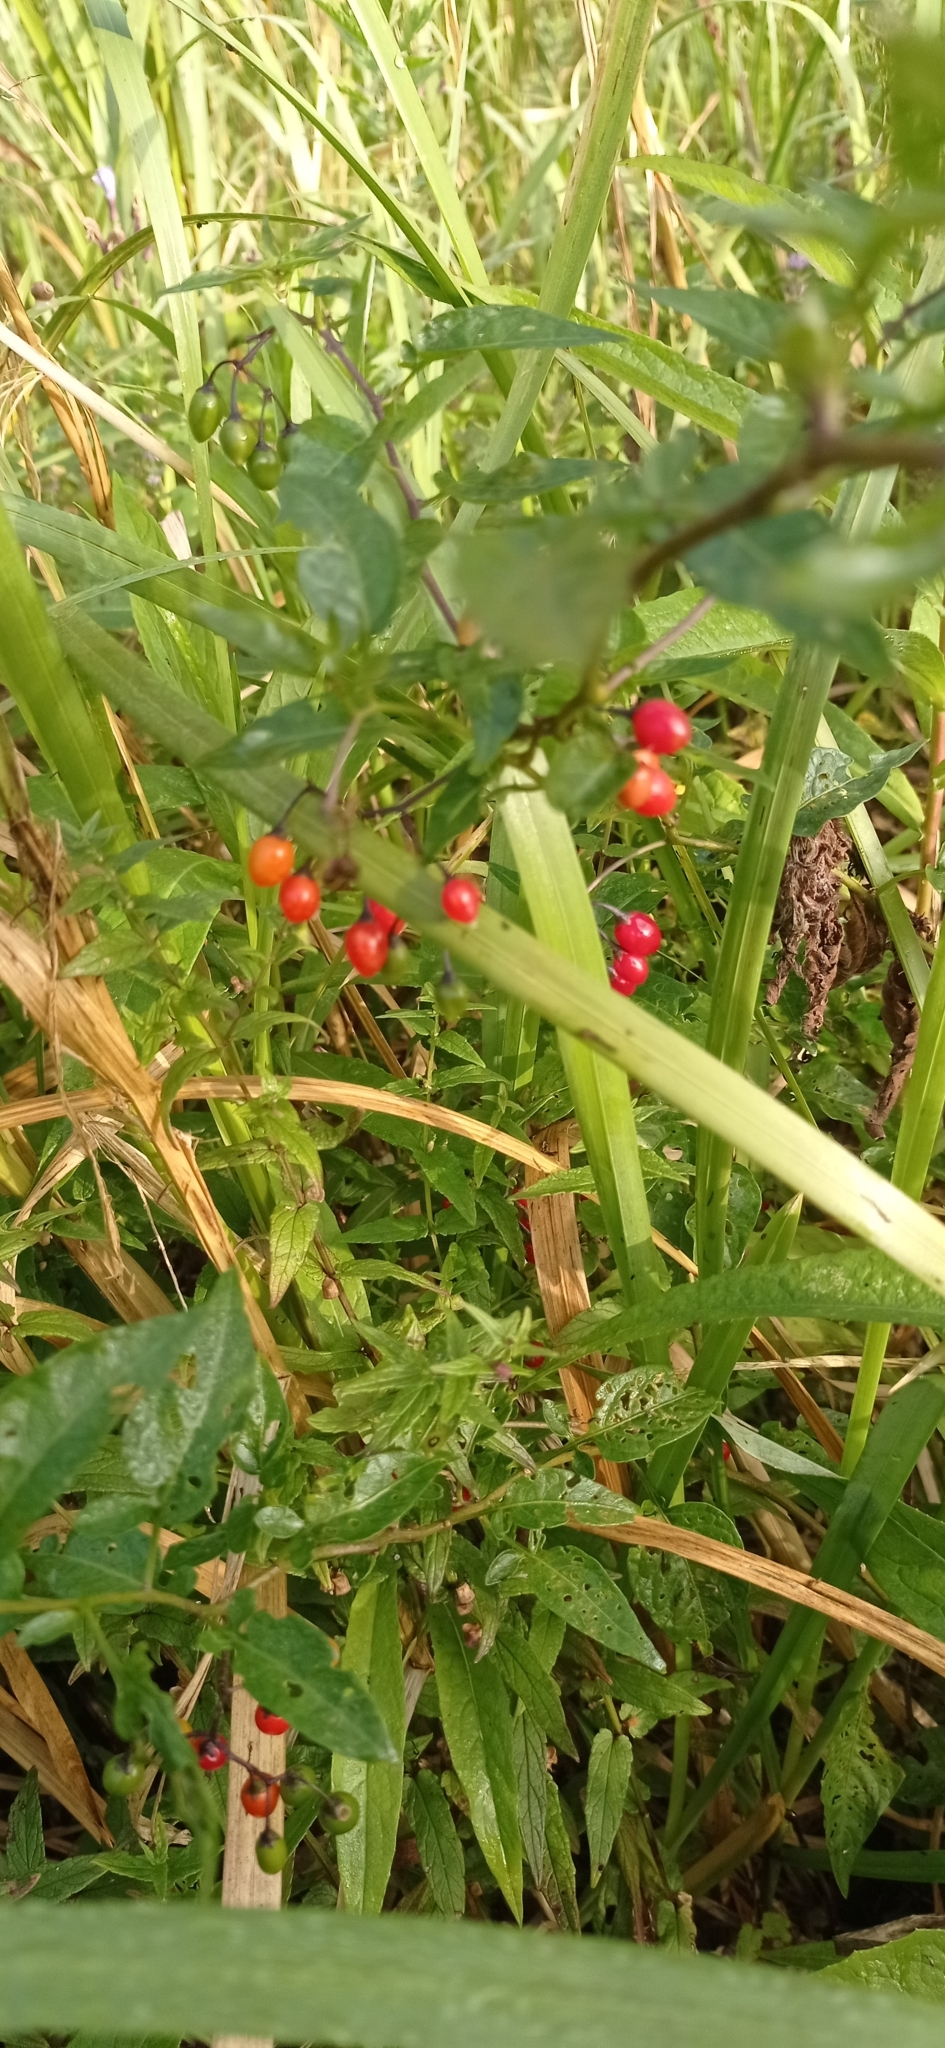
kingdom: Plantae
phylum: Tracheophyta
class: Magnoliopsida
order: Solanales
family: Solanaceae
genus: Solanum
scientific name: Solanum dulcamara
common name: Climbing nightshade
